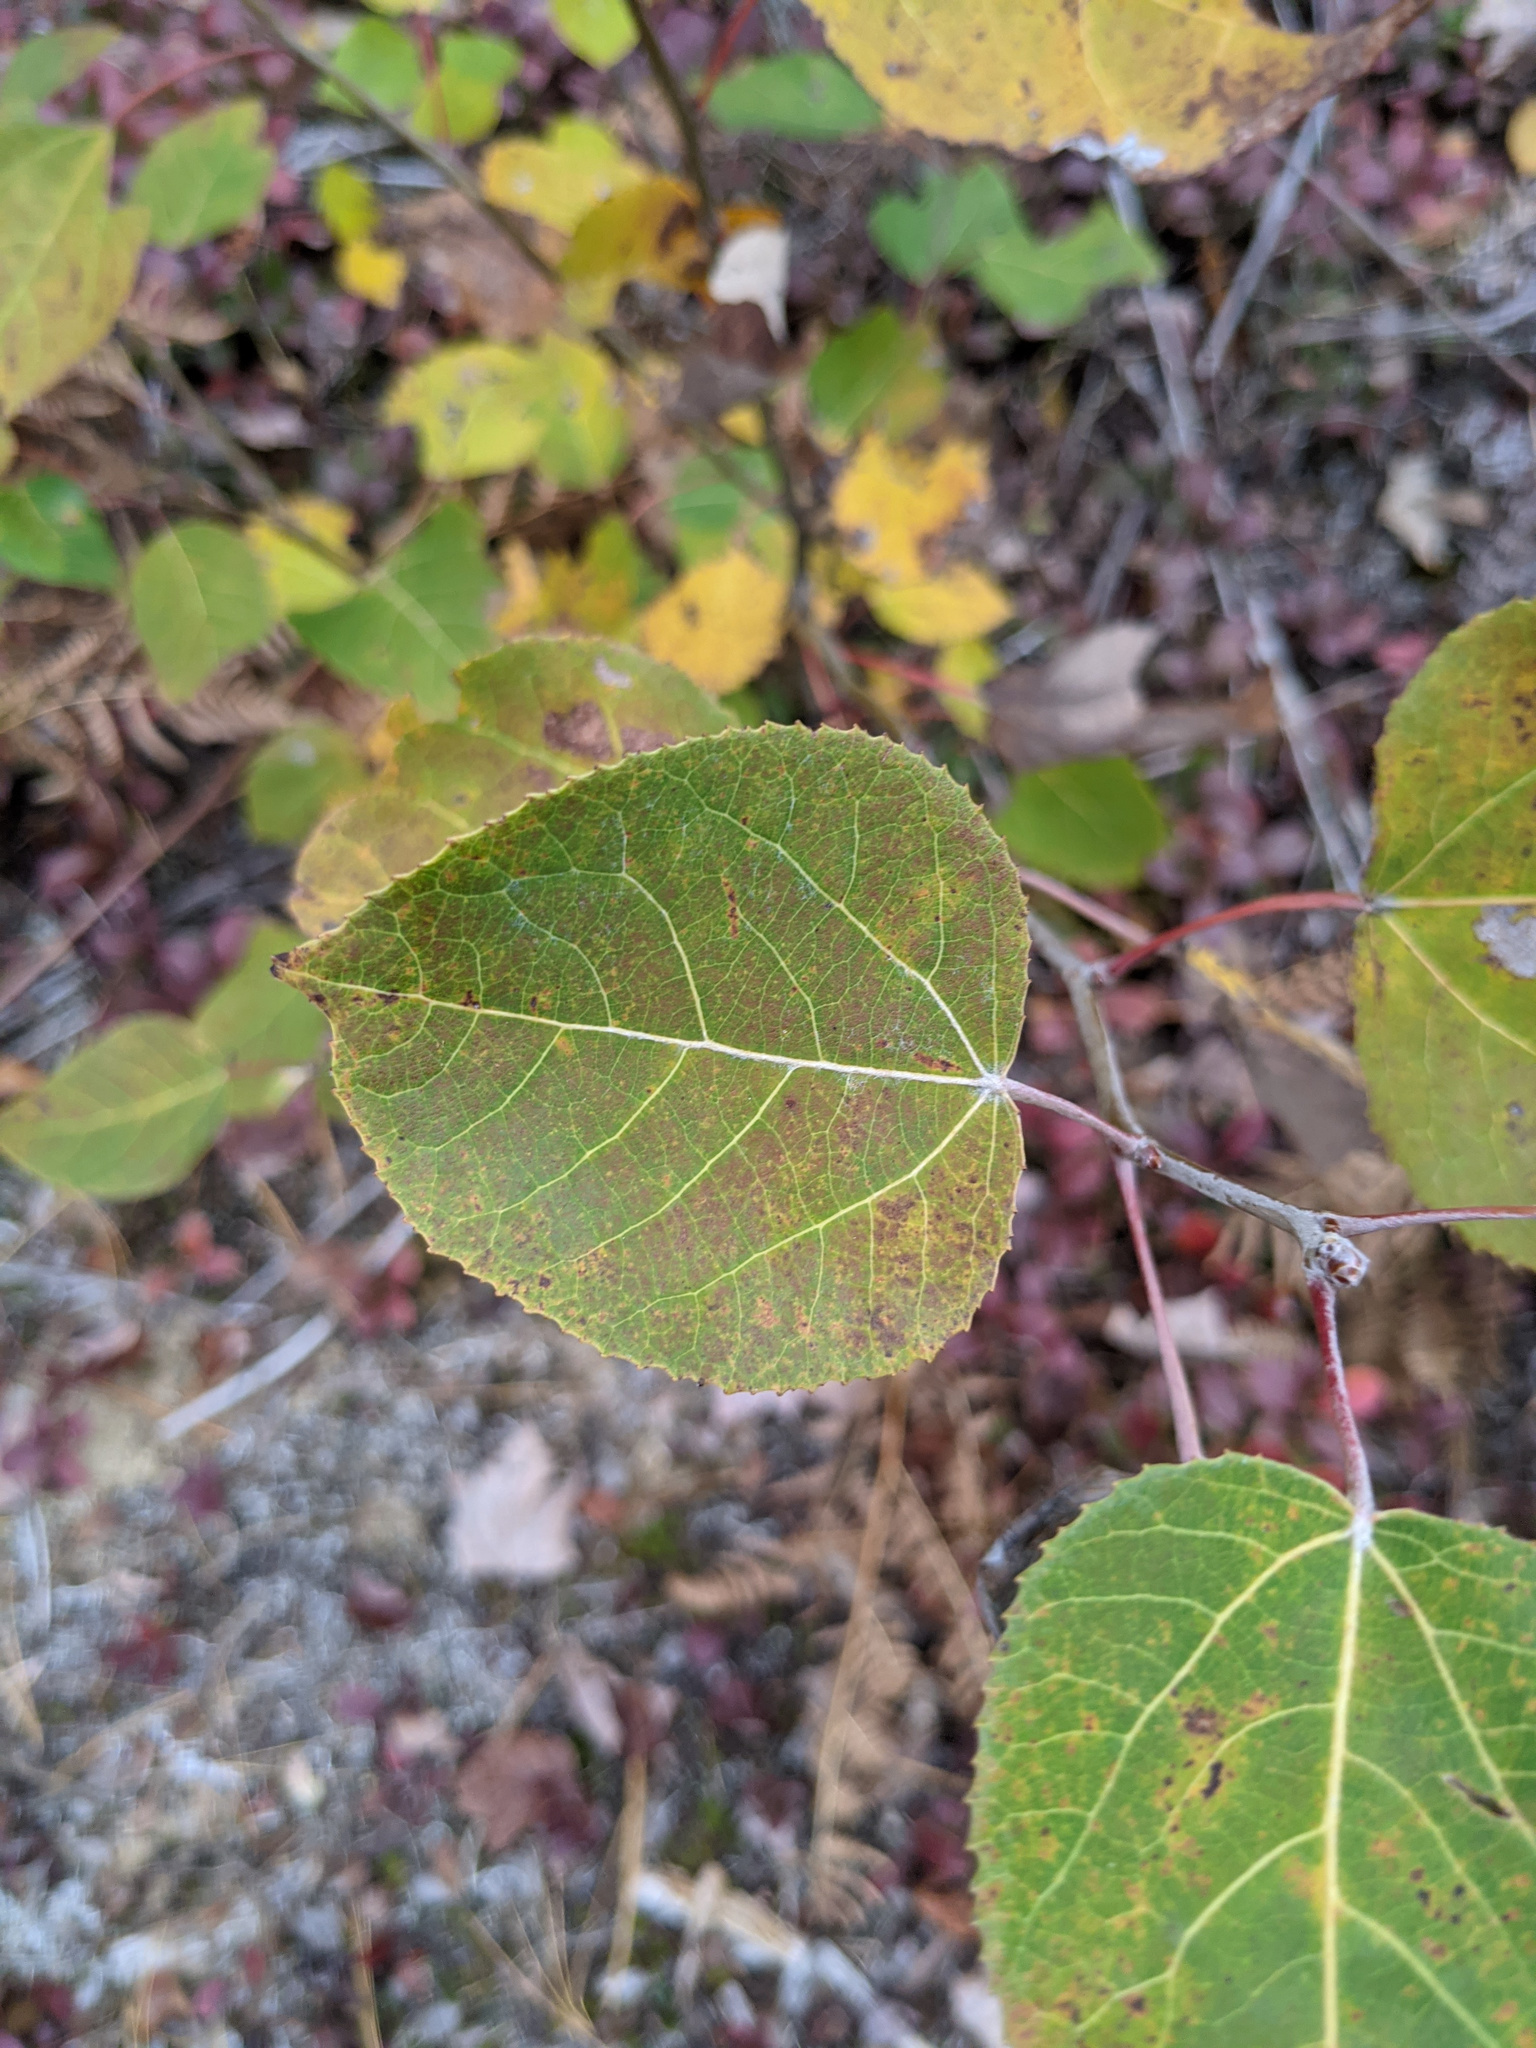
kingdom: Plantae
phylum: Tracheophyta
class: Magnoliopsida
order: Malpighiales
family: Salicaceae
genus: Populus
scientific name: Populus tremuloides
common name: Quaking aspen
